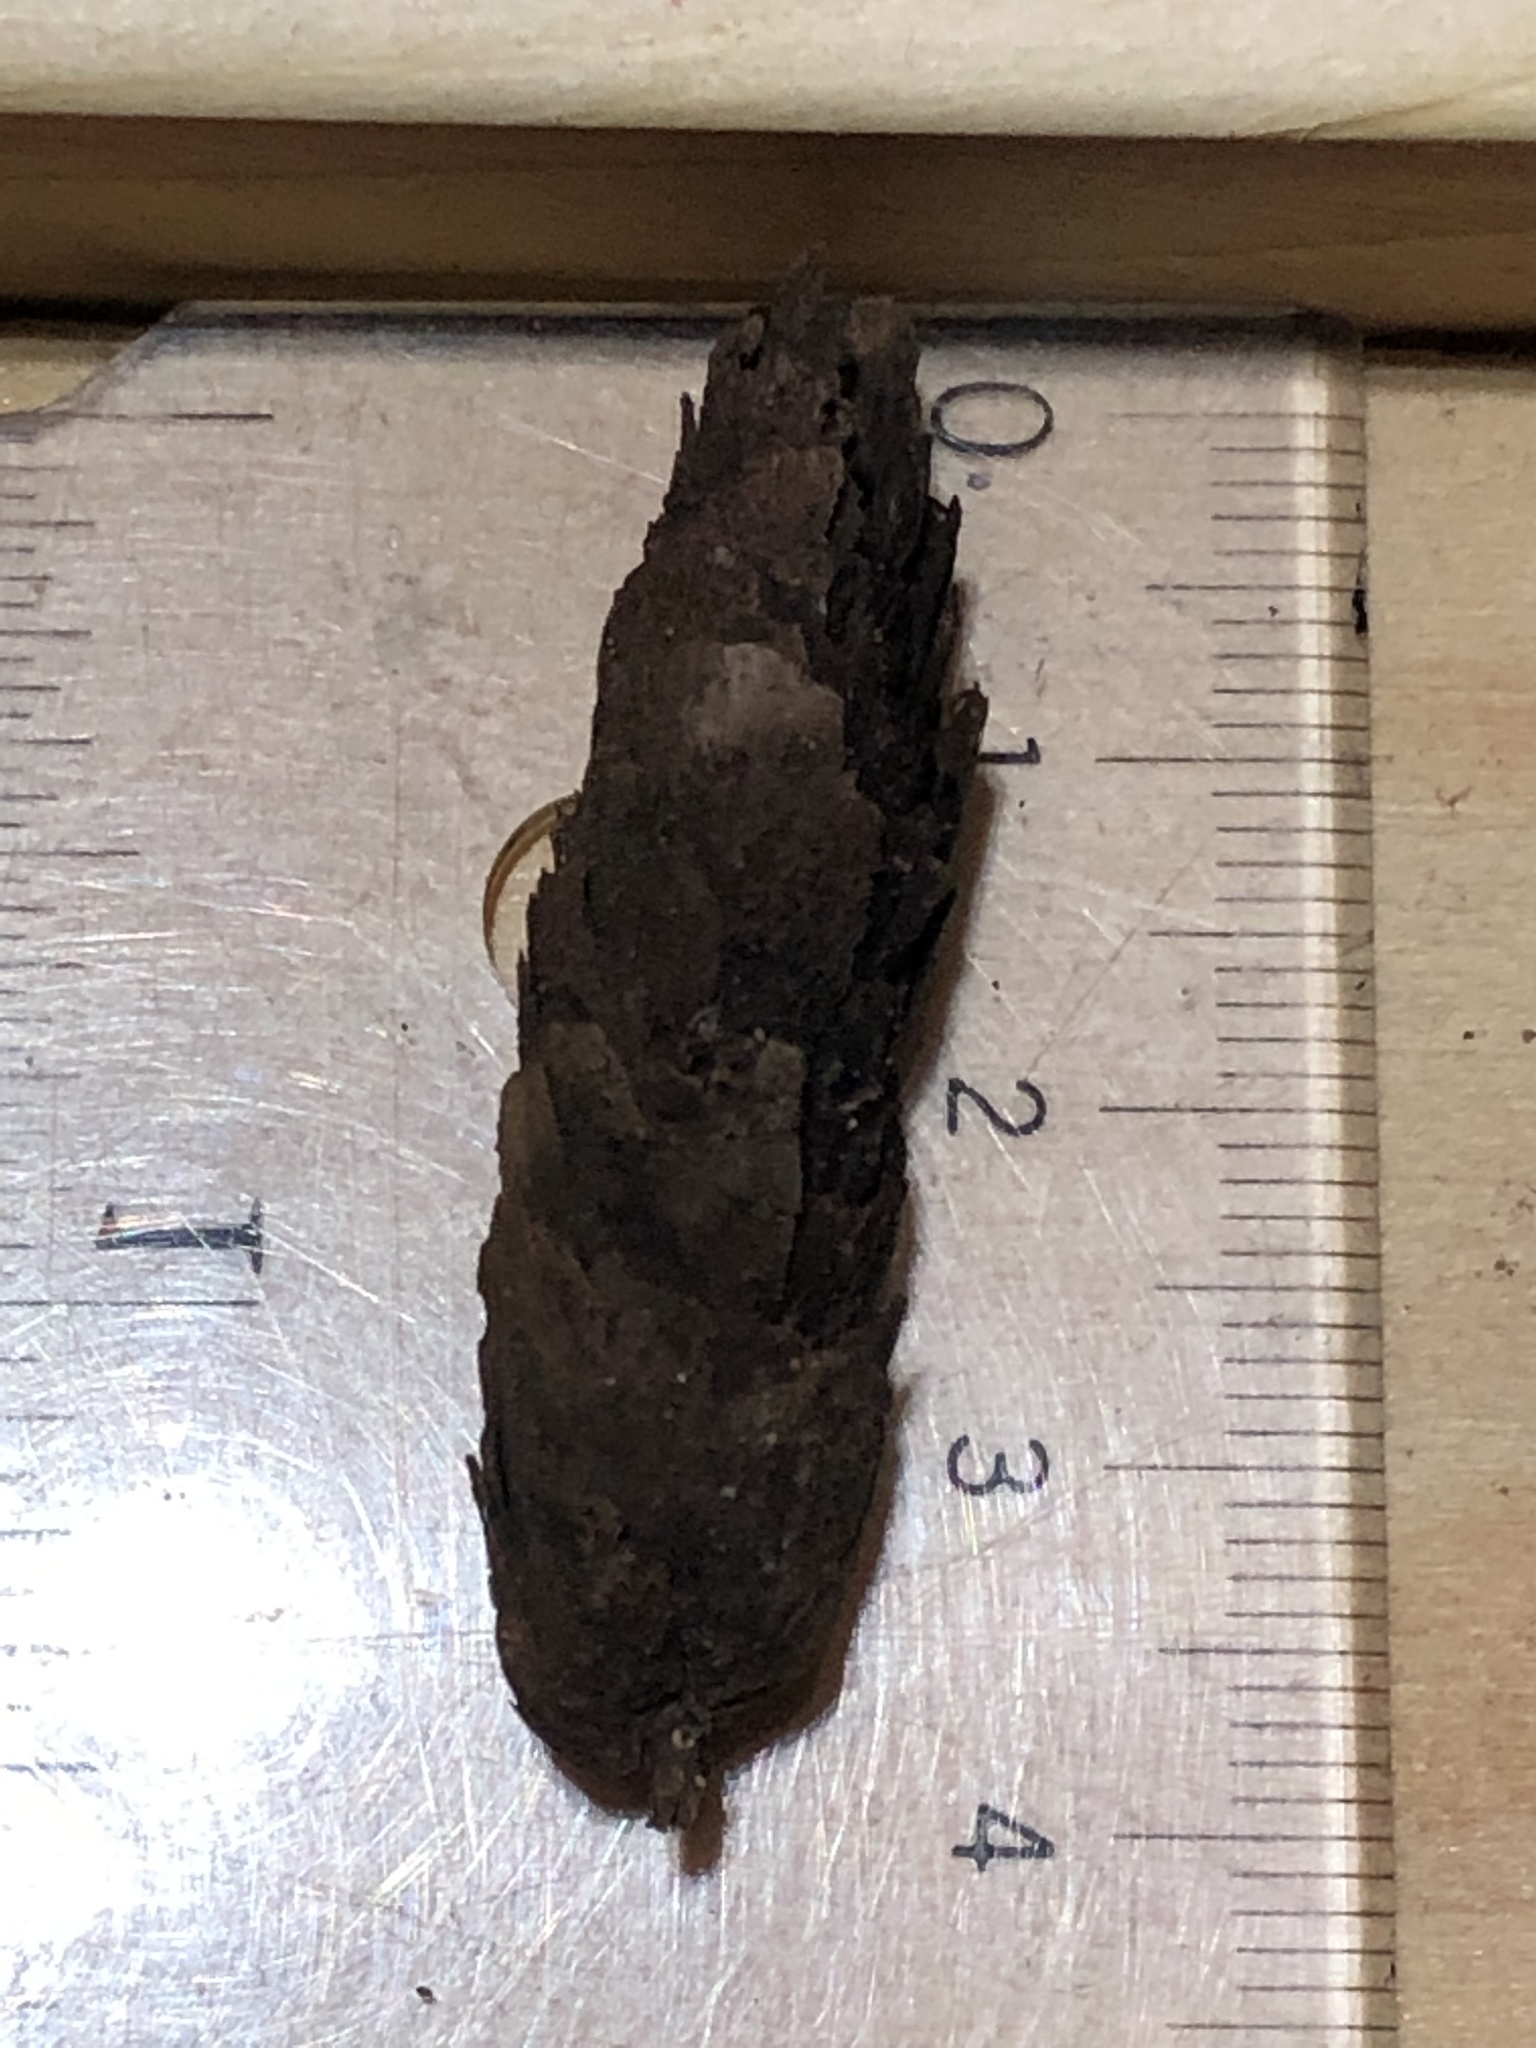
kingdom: Plantae
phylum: Tracheophyta
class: Pinopsida
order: Pinales
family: Pinaceae
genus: Picea
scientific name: Picea glauca
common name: White spruce
